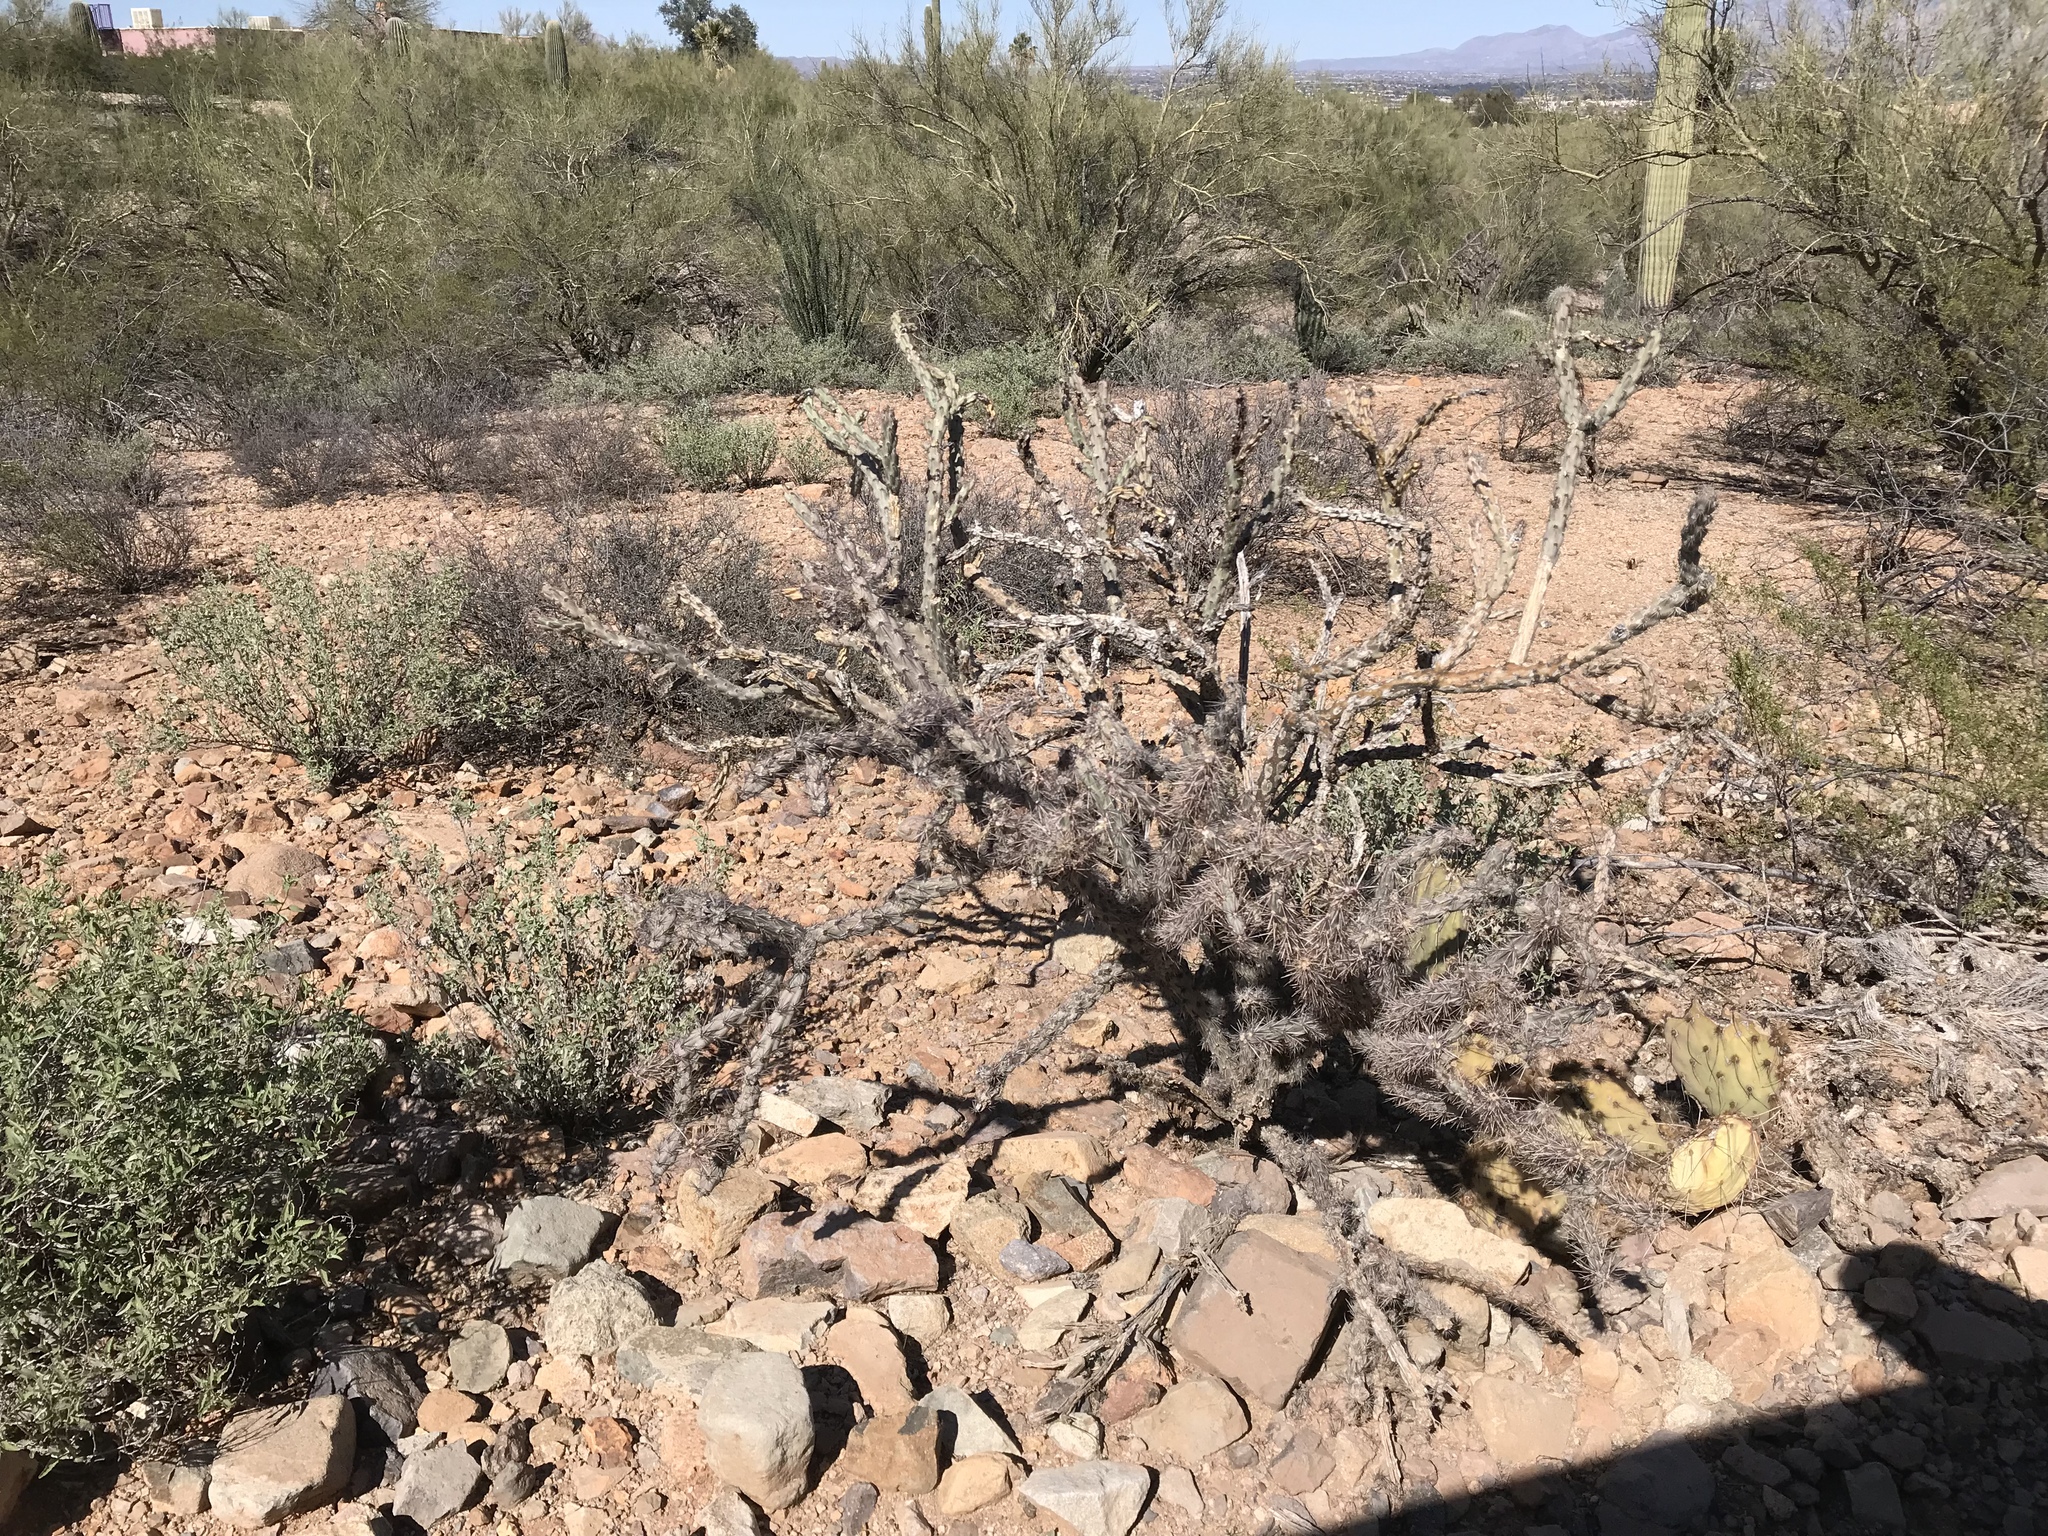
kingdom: Plantae
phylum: Tracheophyta
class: Magnoliopsida
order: Caryophyllales
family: Cactaceae
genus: Cylindropuntia
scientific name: Cylindropuntia acanthocarpa
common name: Buckhorn cholla
